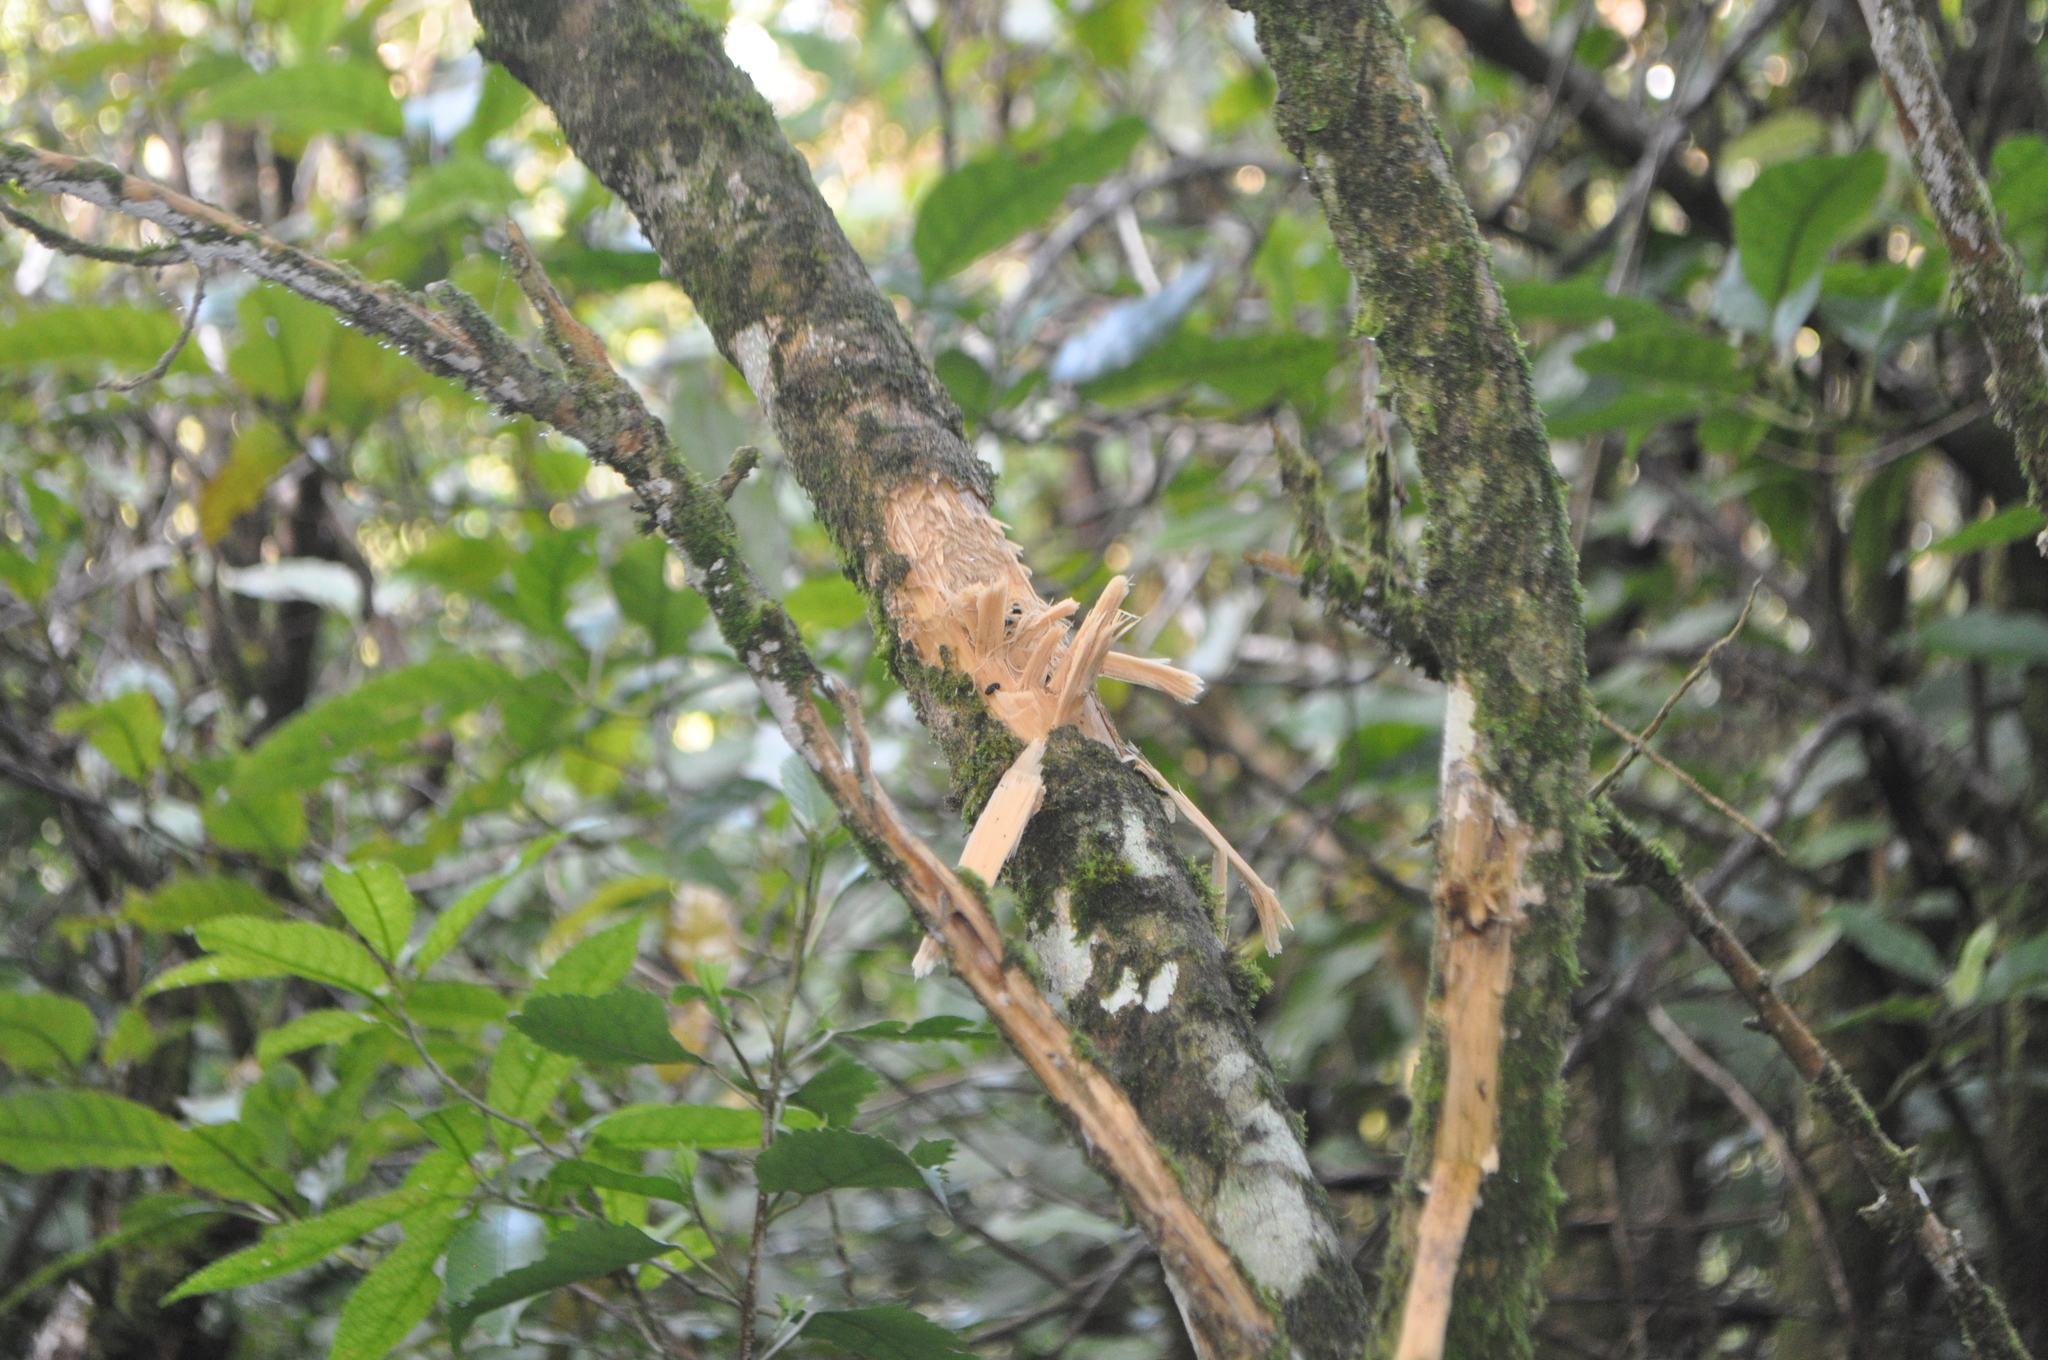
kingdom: Animalia
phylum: Chordata
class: Aves
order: Psittaciformes
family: Psittacidae
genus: Nestor
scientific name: Nestor meridionalis
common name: New zealand kaka
